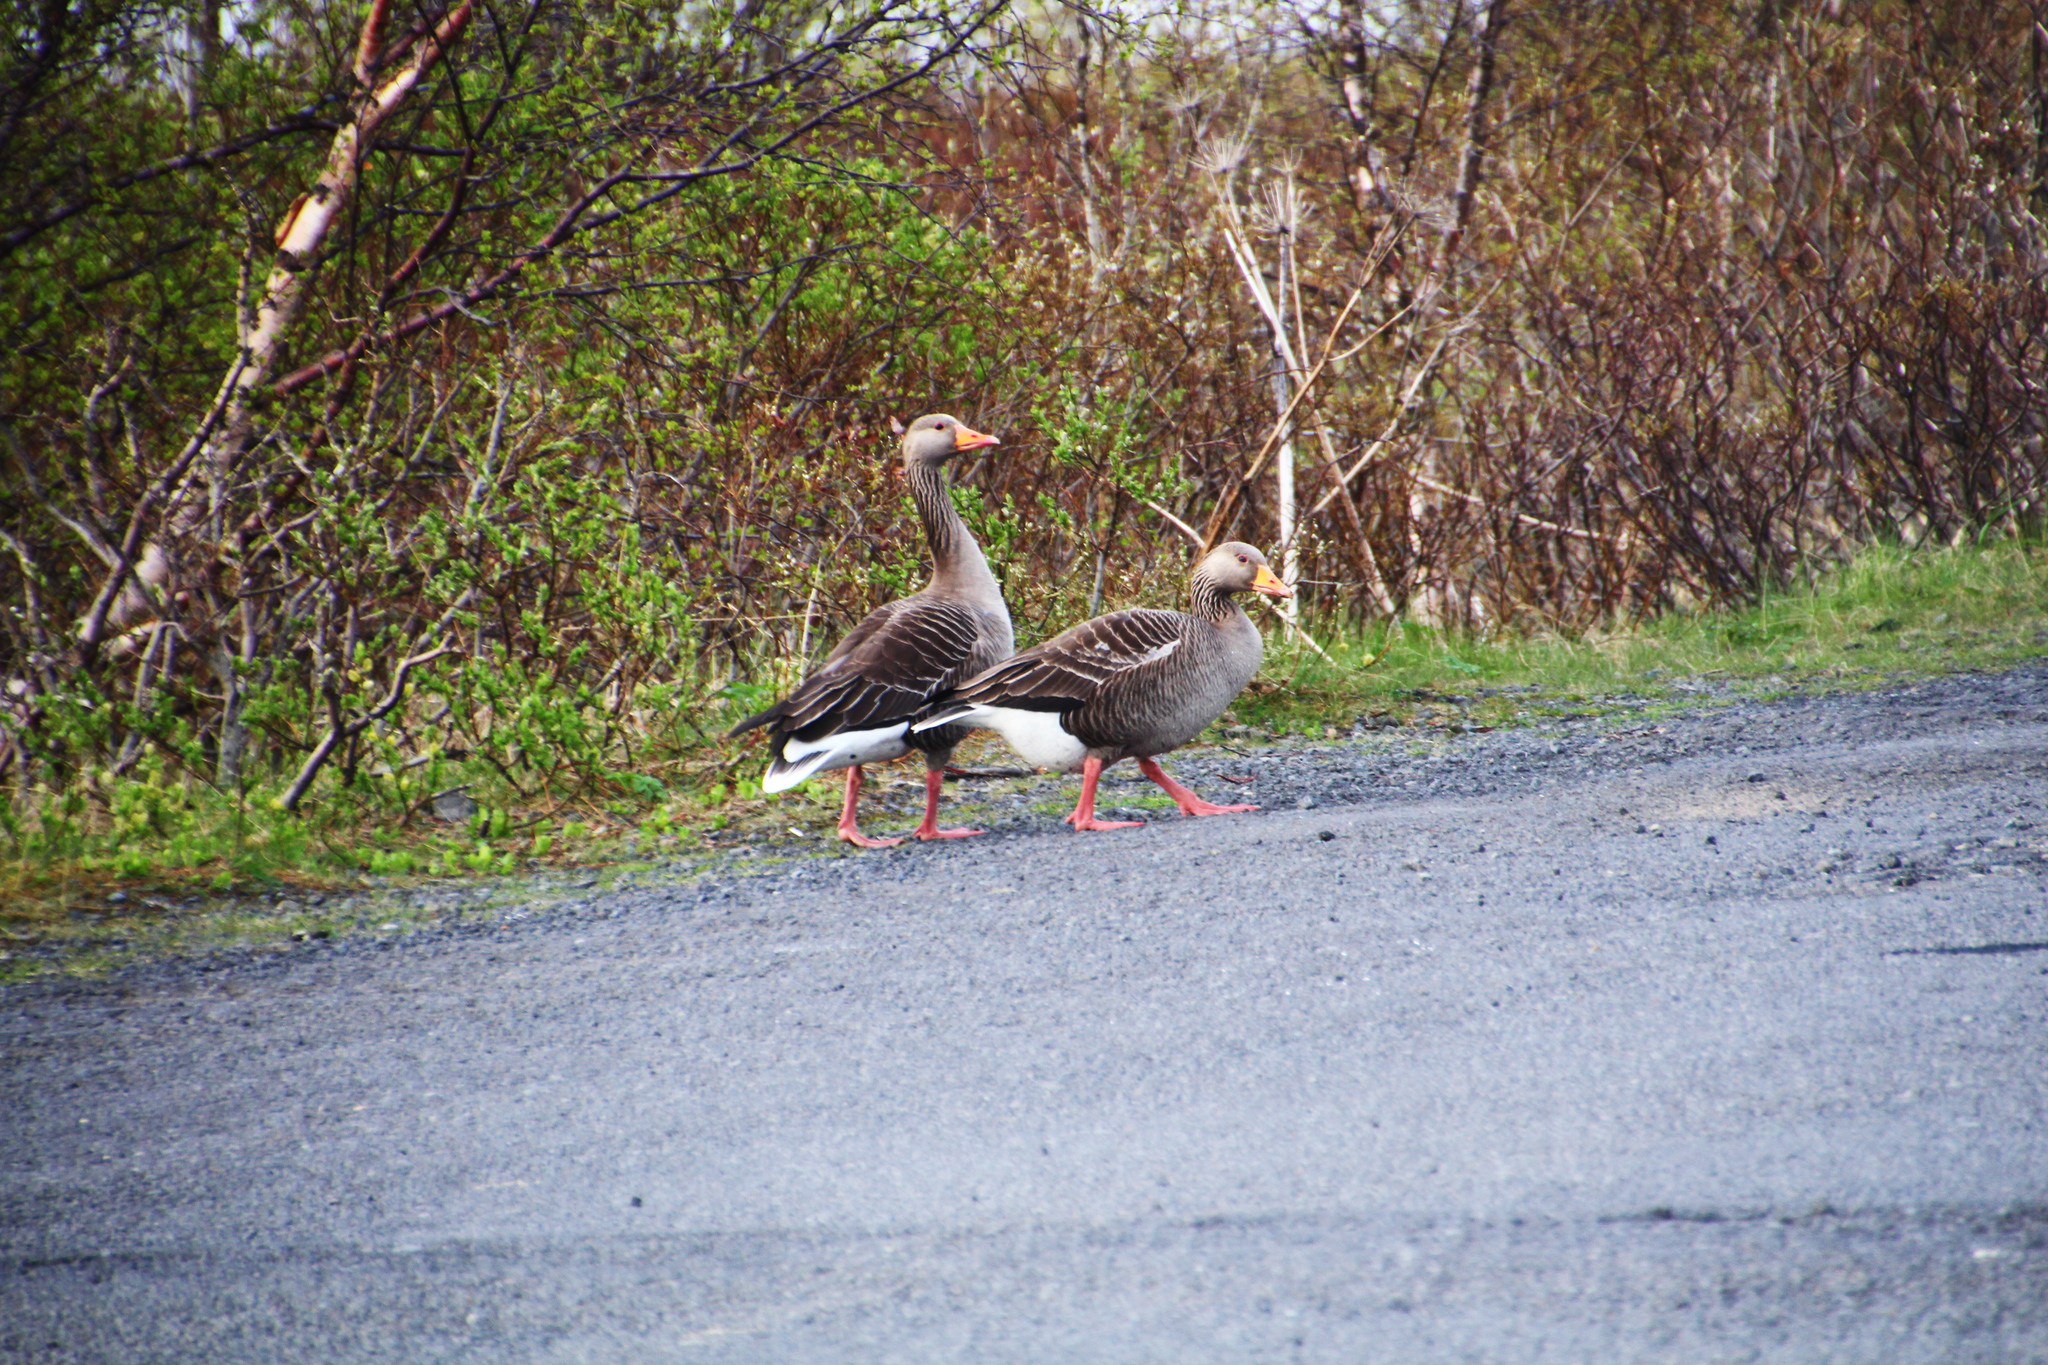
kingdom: Animalia
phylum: Chordata
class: Aves
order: Anseriformes
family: Anatidae
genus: Anser
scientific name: Anser anser
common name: Greylag goose
